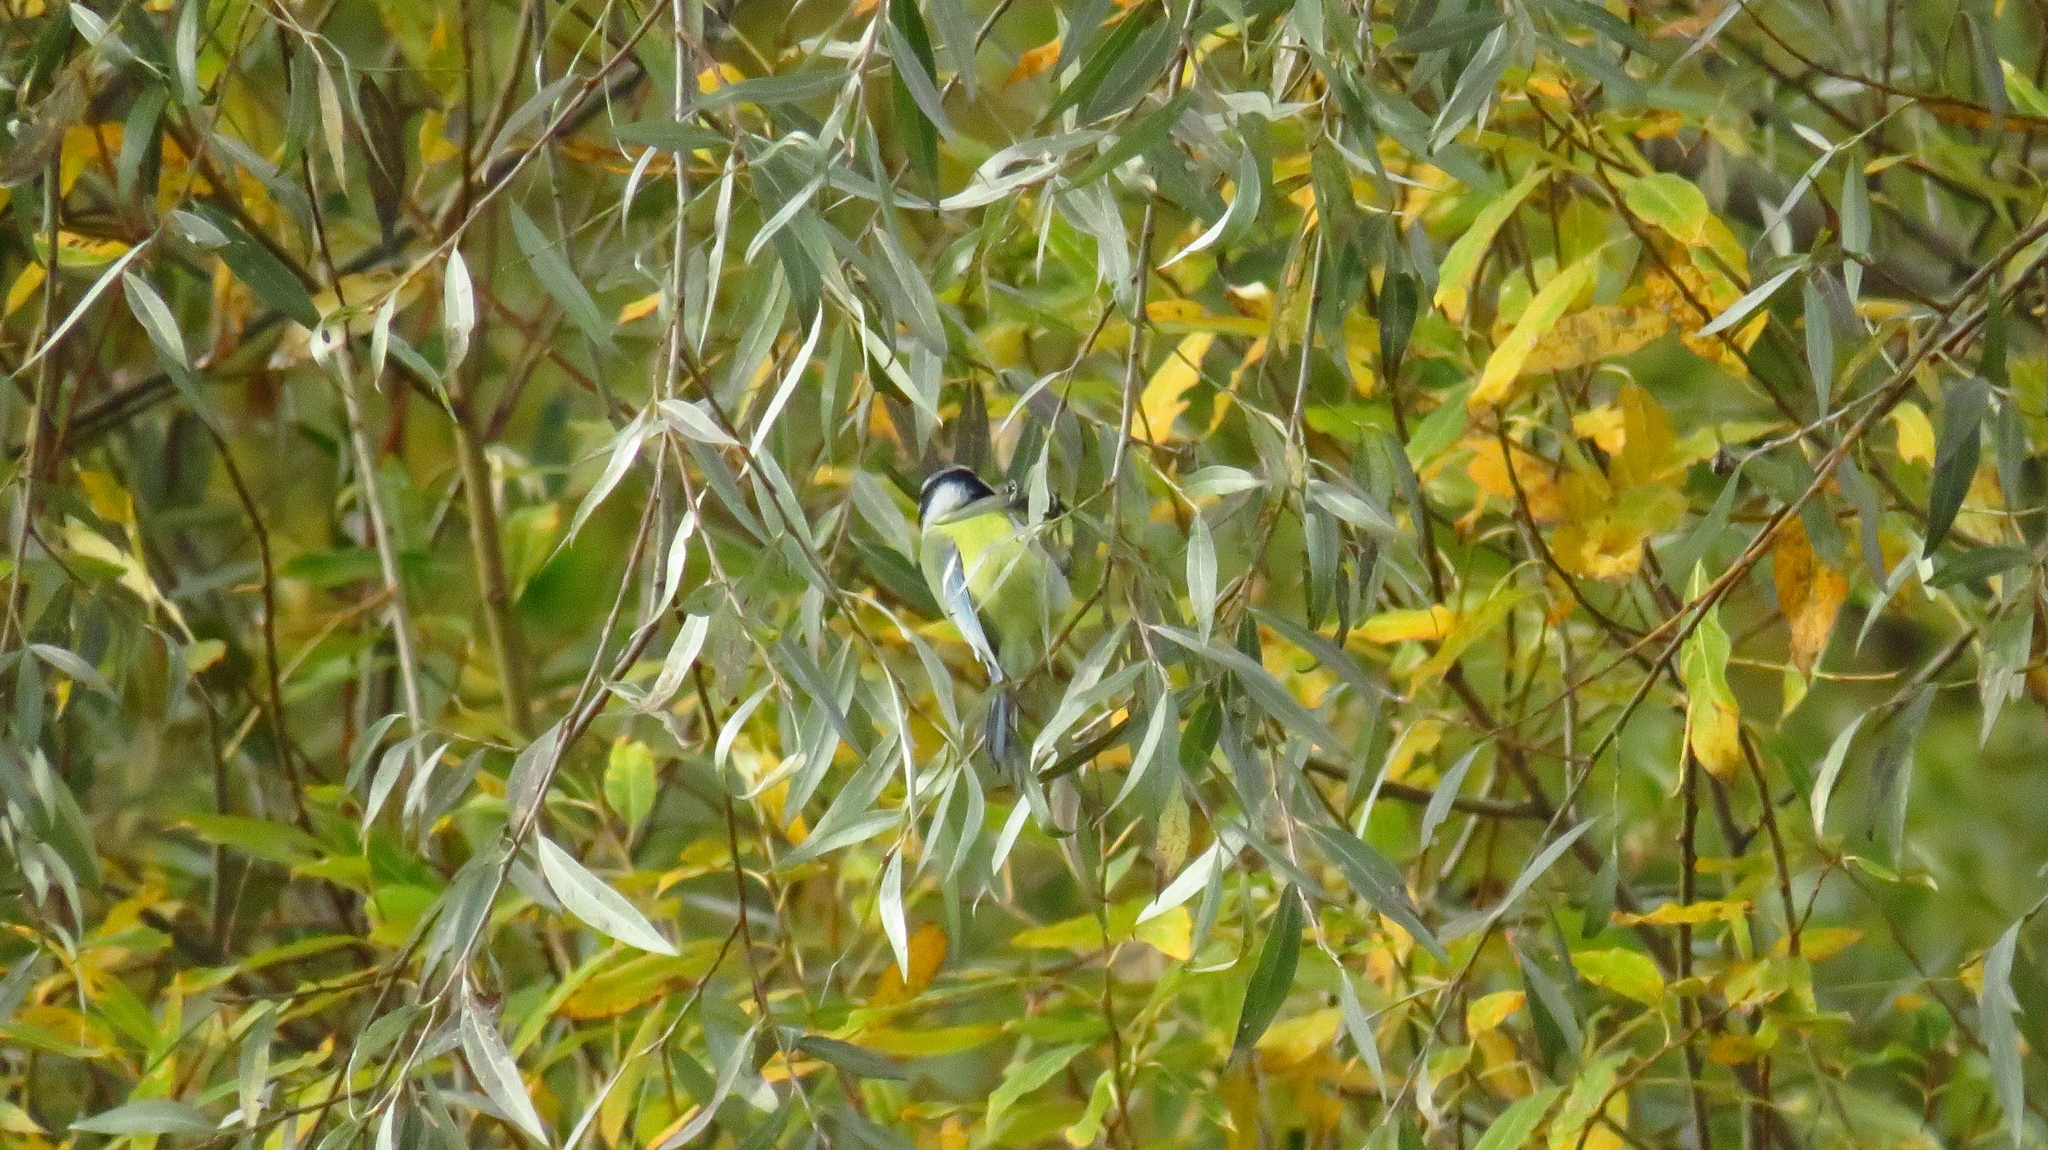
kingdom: Animalia
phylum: Chordata
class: Aves
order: Passeriformes
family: Paridae
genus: Cyanistes
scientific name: Cyanistes caeruleus
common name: Eurasian blue tit
